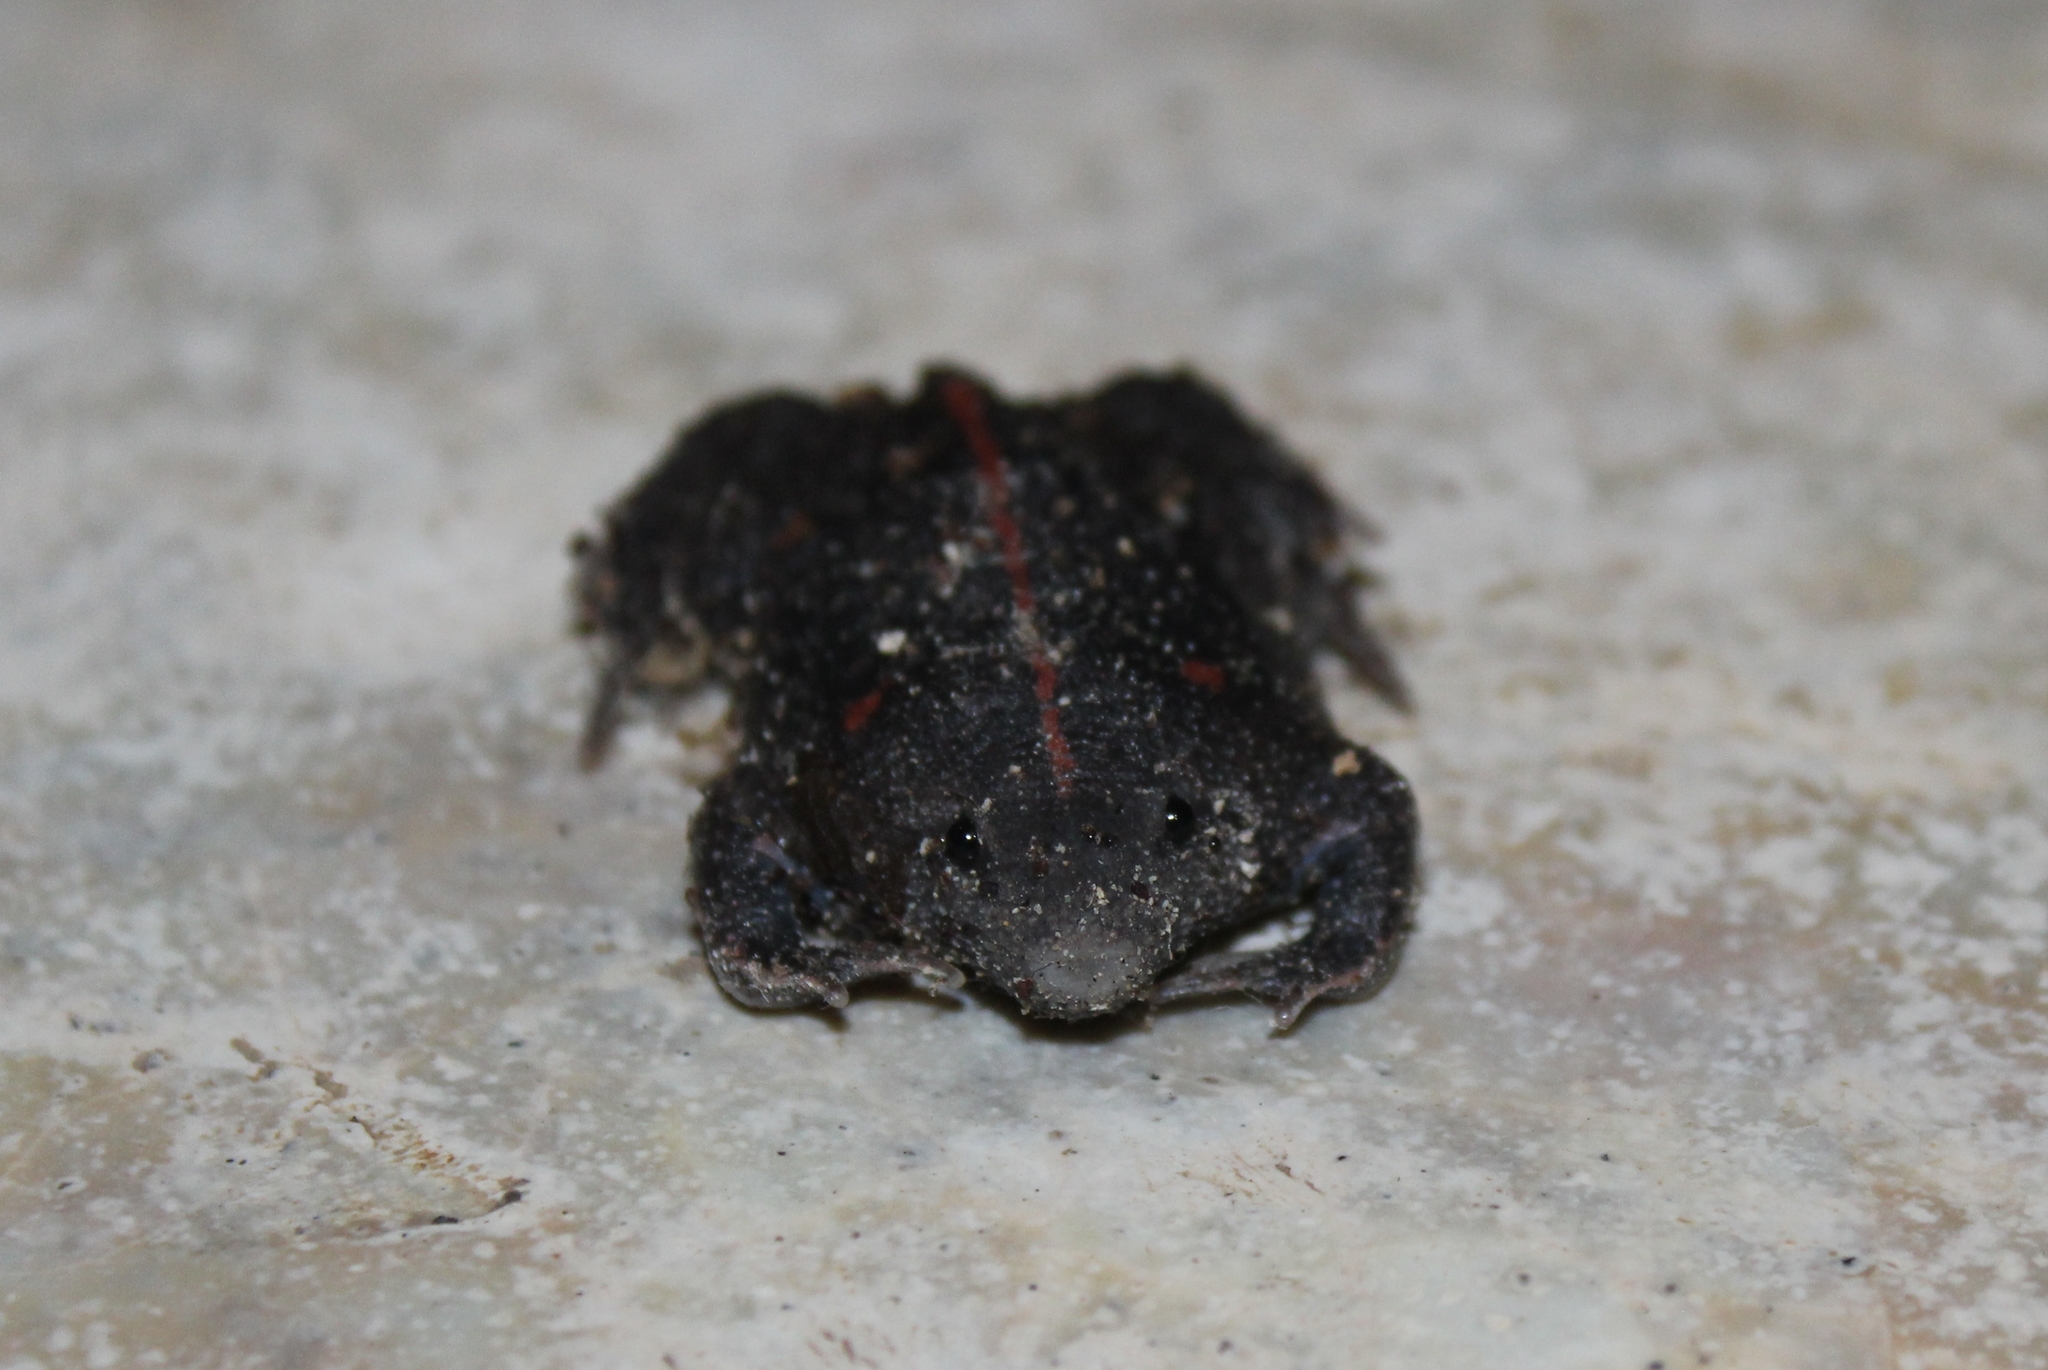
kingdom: Animalia
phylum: Chordata
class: Amphibia
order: Anura
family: Rhinophrynidae
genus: Rhinophrynus
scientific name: Rhinophrynus dorsalis
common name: Mexican burrowing toad
